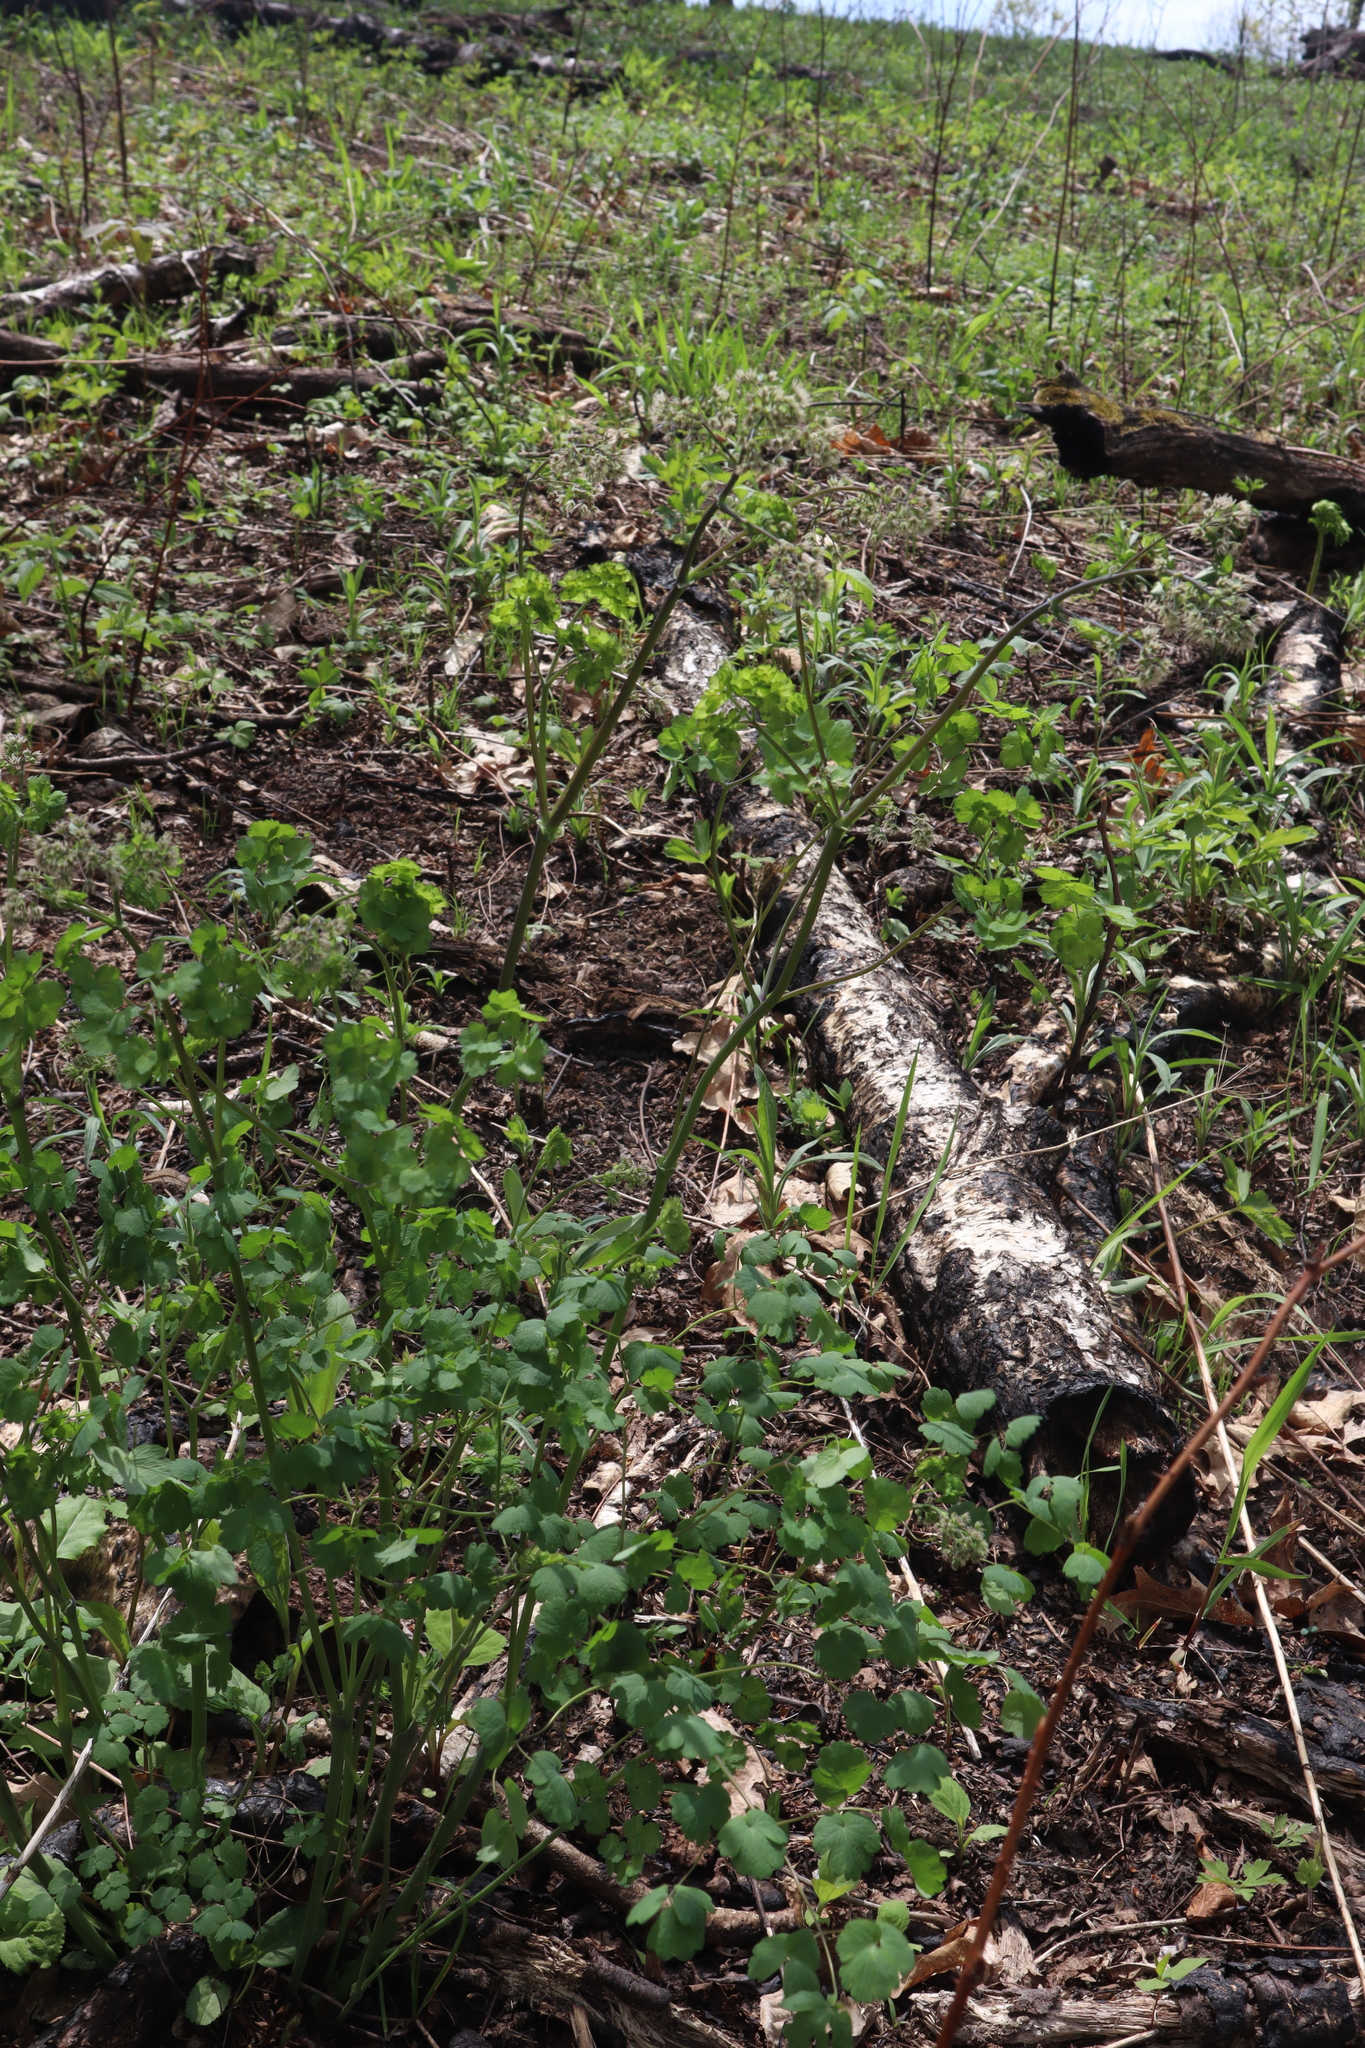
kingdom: Plantae
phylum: Tracheophyta
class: Magnoliopsida
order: Ranunculales
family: Ranunculaceae
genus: Thalictrum
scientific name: Thalictrum dioicum
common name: Early meadow-rue
